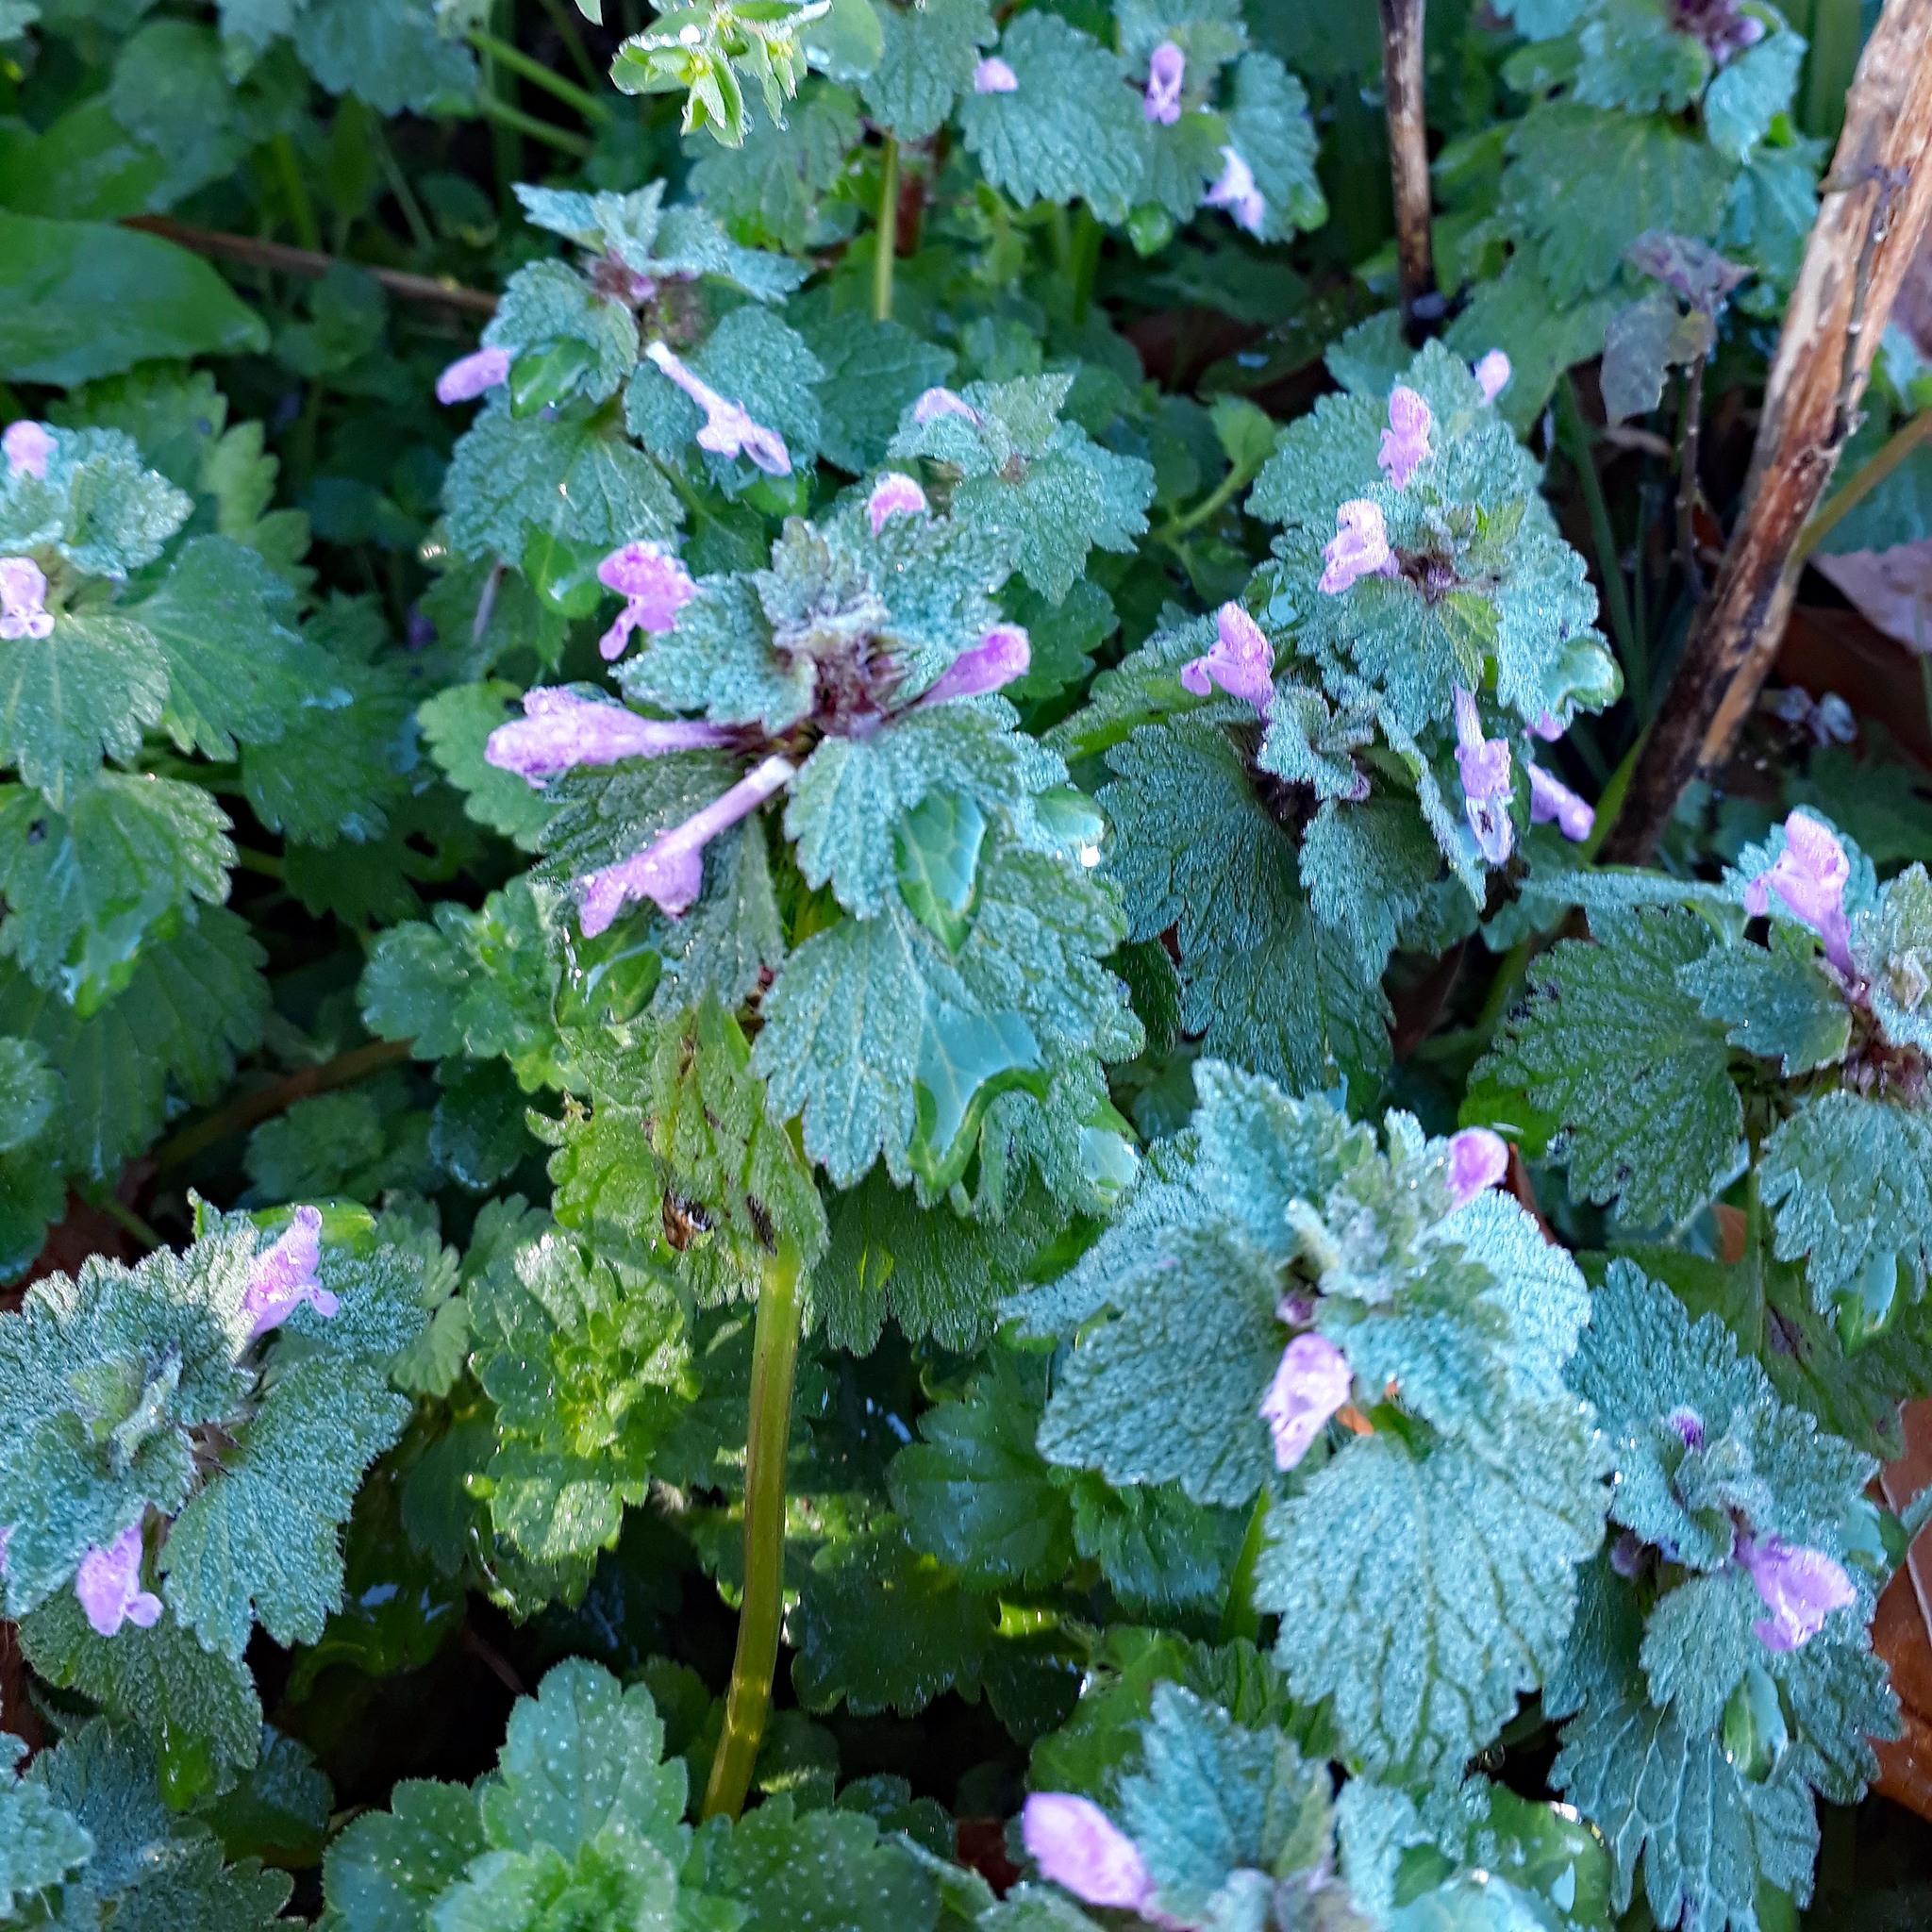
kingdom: Plantae
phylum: Tracheophyta
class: Magnoliopsida
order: Lamiales
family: Lamiaceae
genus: Lamium
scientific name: Lamium purpureum
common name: Red dead-nettle
